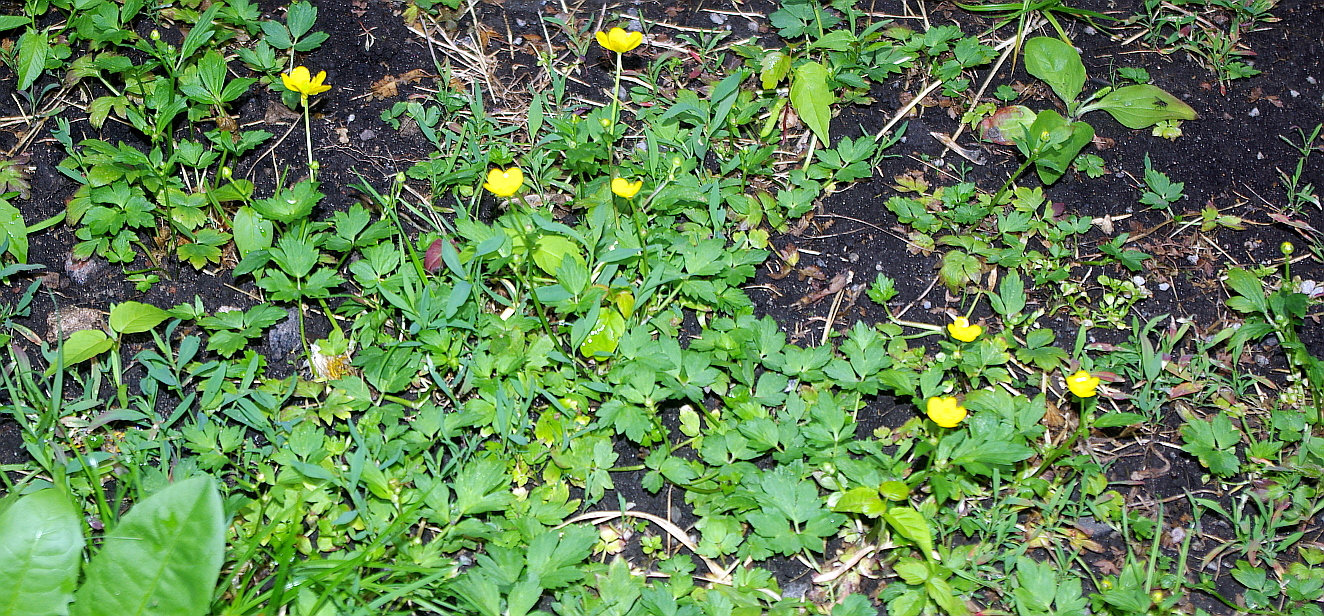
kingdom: Plantae
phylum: Tracheophyta
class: Magnoliopsida
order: Ranunculales
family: Ranunculaceae
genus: Ranunculus
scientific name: Ranunculus repens
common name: Creeping buttercup
